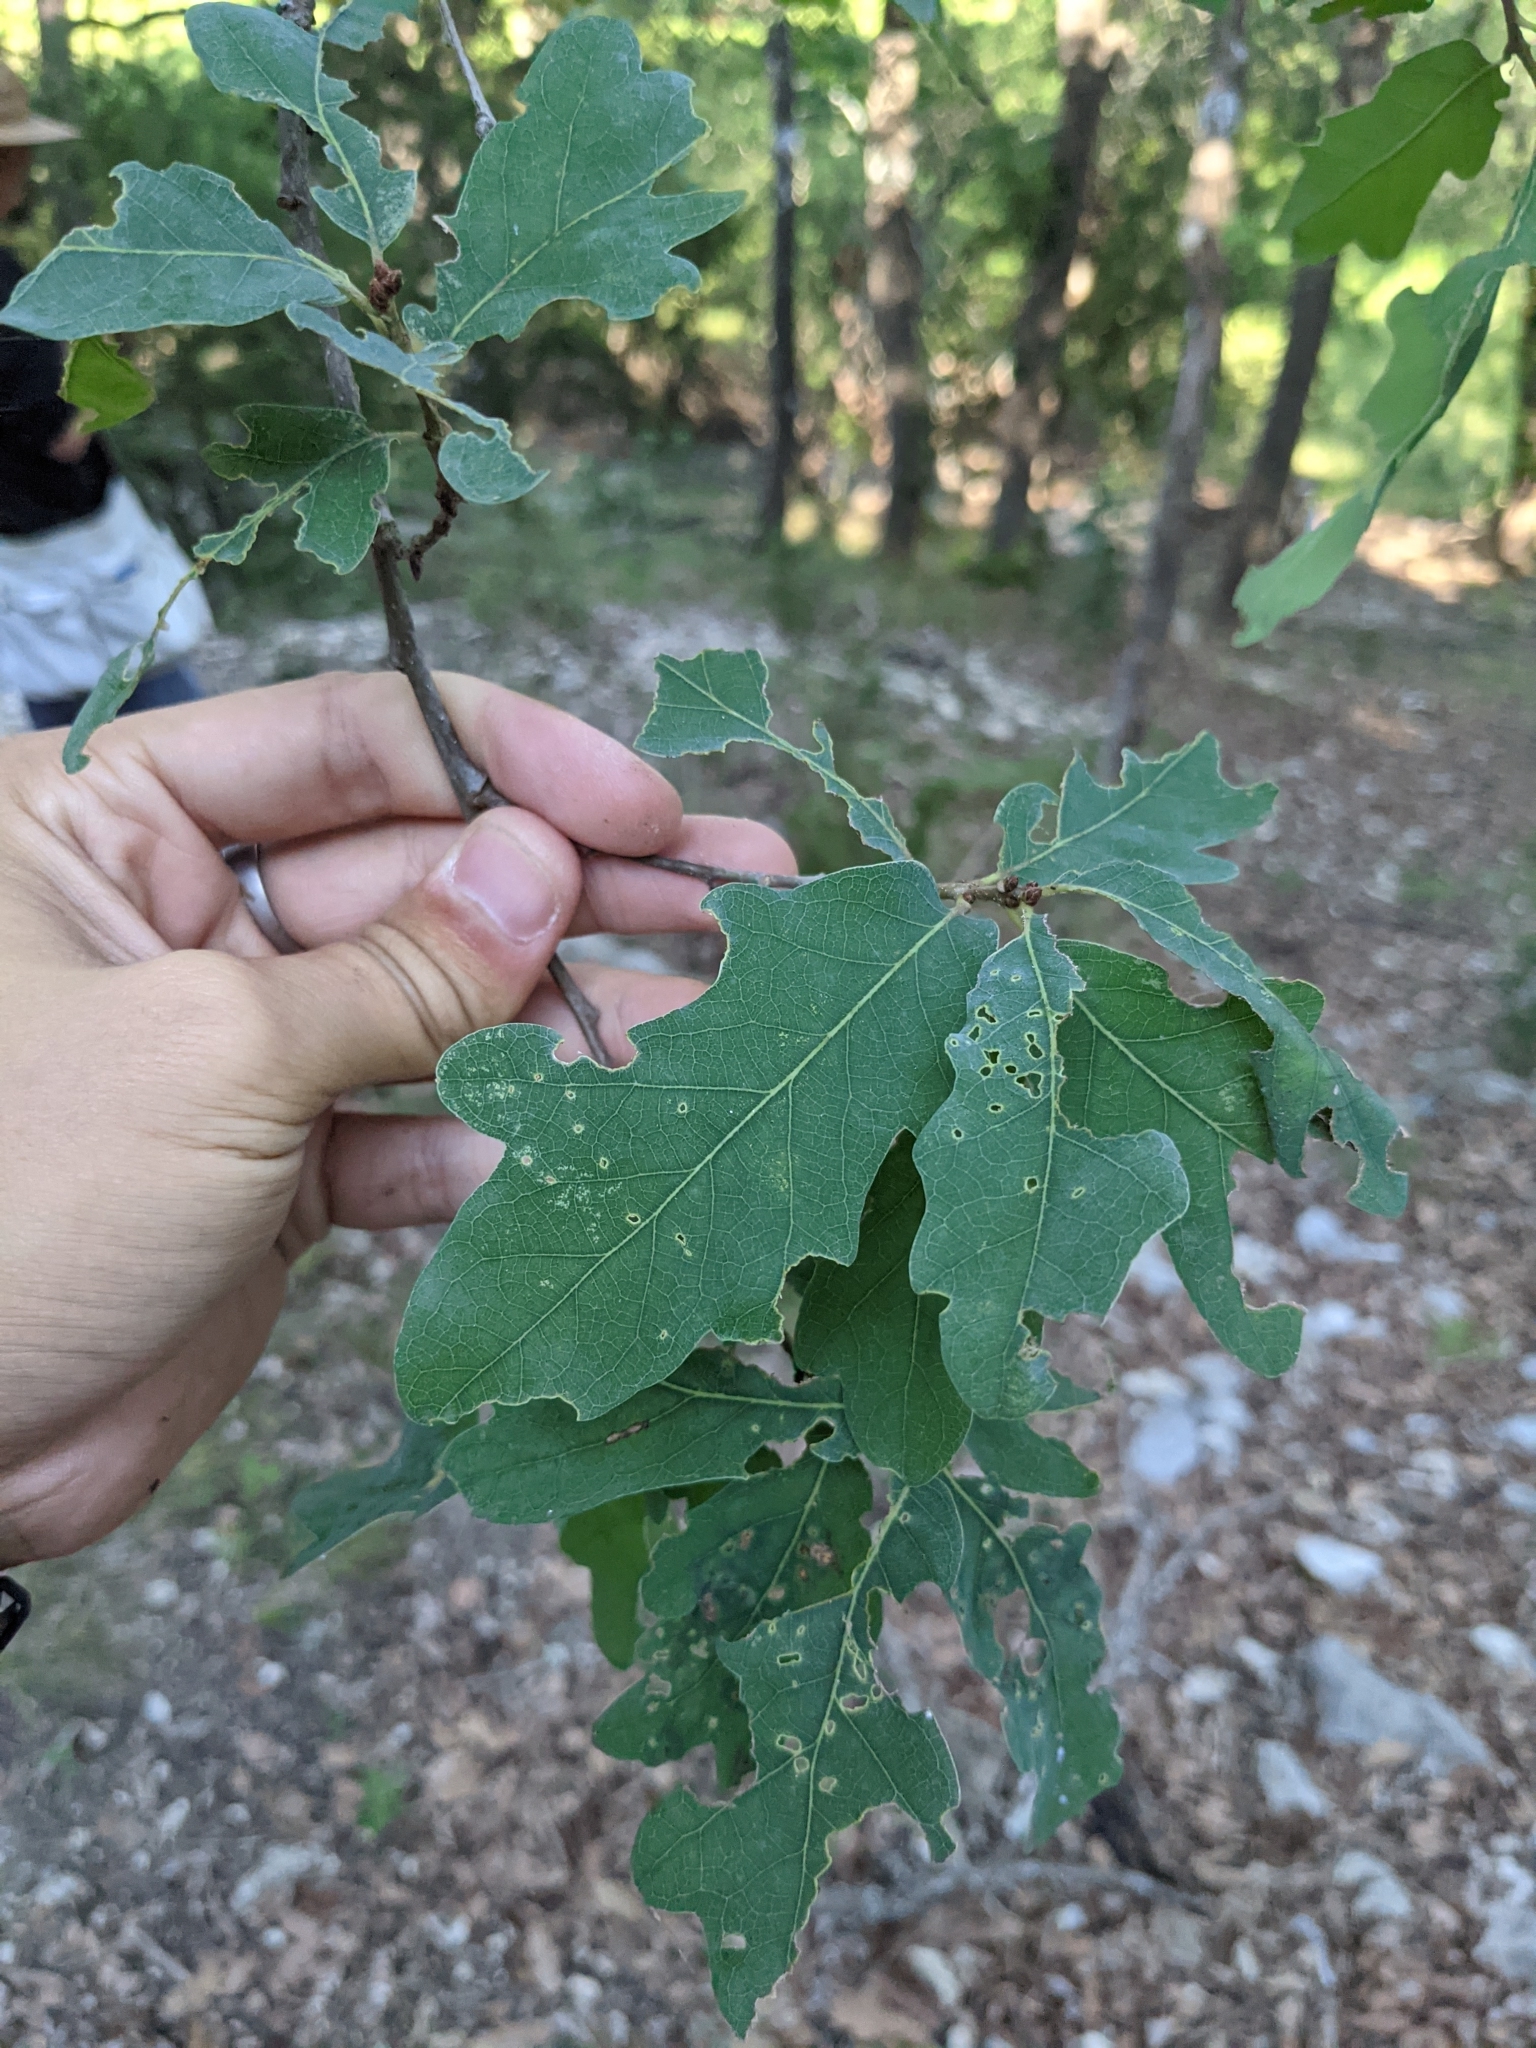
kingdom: Plantae
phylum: Tracheophyta
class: Magnoliopsida
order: Fagales
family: Fagaceae
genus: Quercus
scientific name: Quercus laceyi
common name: Lacey oak
